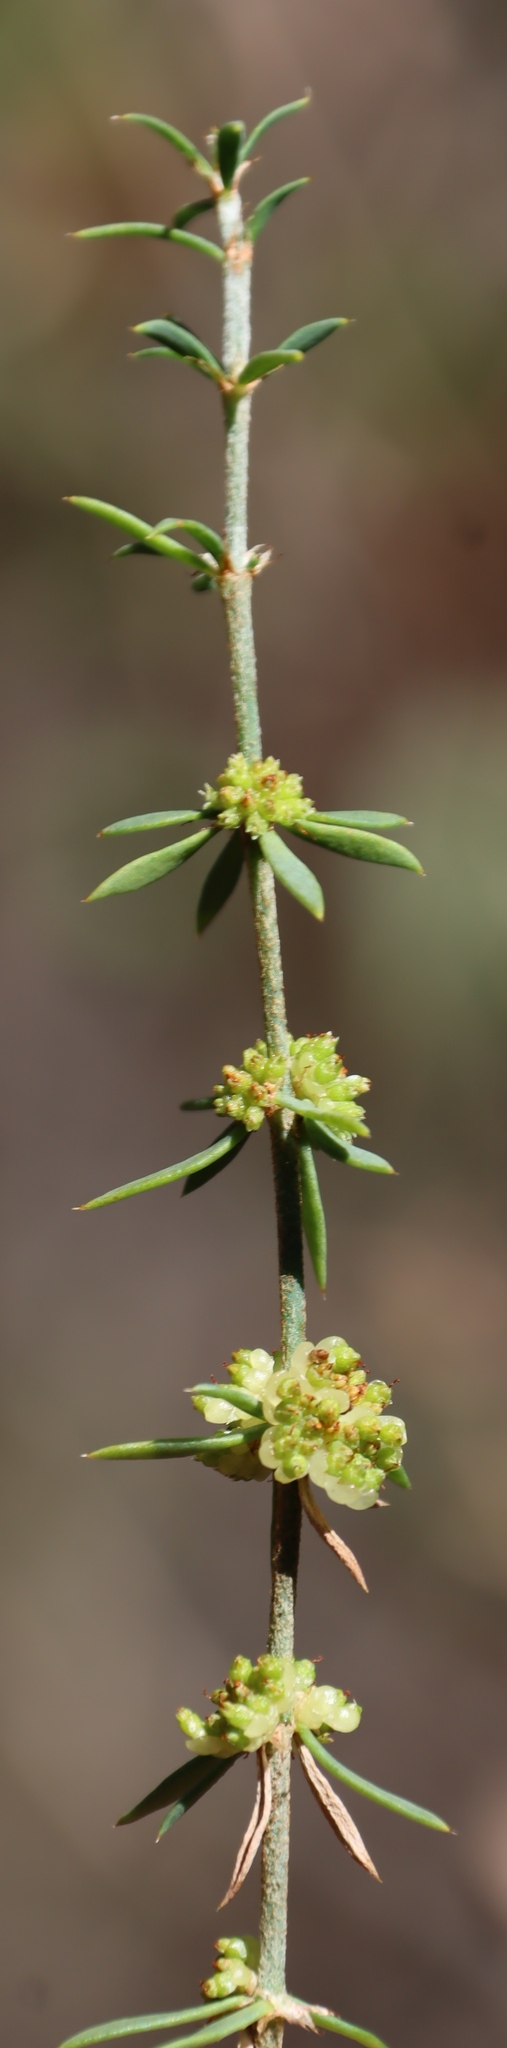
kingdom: Plantae
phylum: Tracheophyta
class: Magnoliopsida
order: Caryophyllales
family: Caryophyllaceae
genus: Pollichia
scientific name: Pollichia campestris
